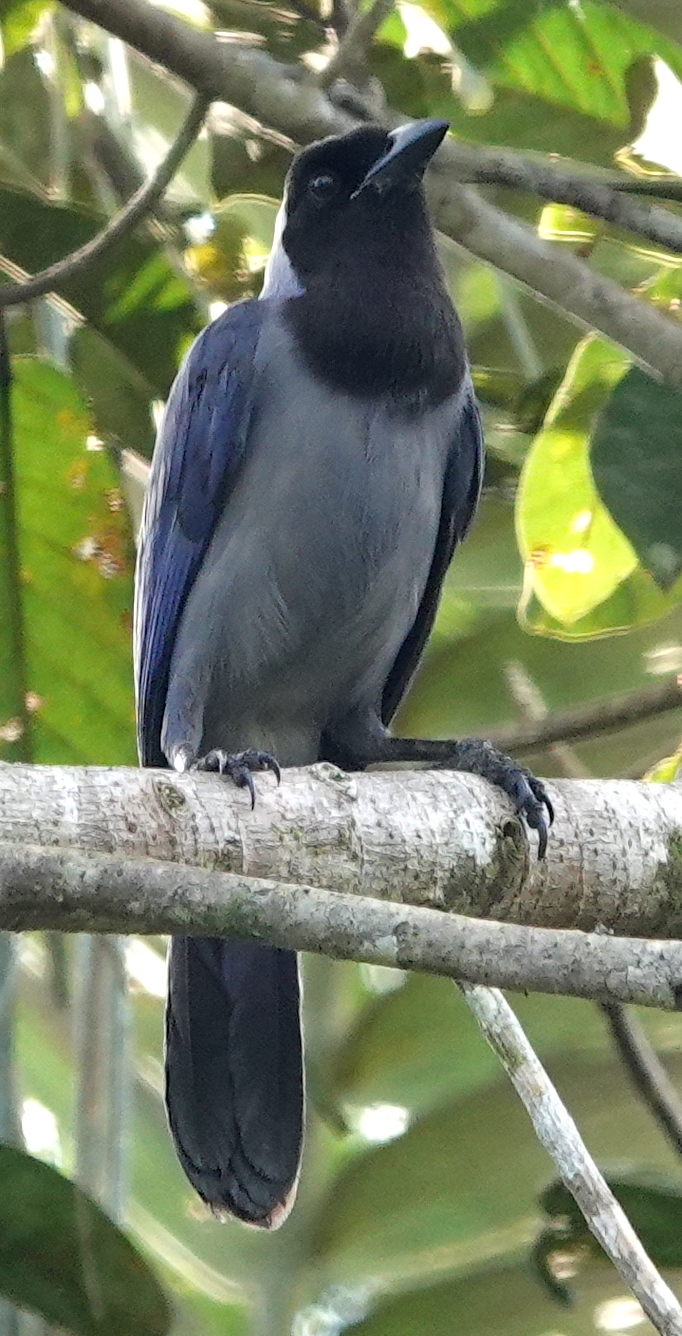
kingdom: Animalia
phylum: Chordata
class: Aves
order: Passeriformes
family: Corvidae
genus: Cyanocorax
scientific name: Cyanocorax violaceus
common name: Violaceous jay
